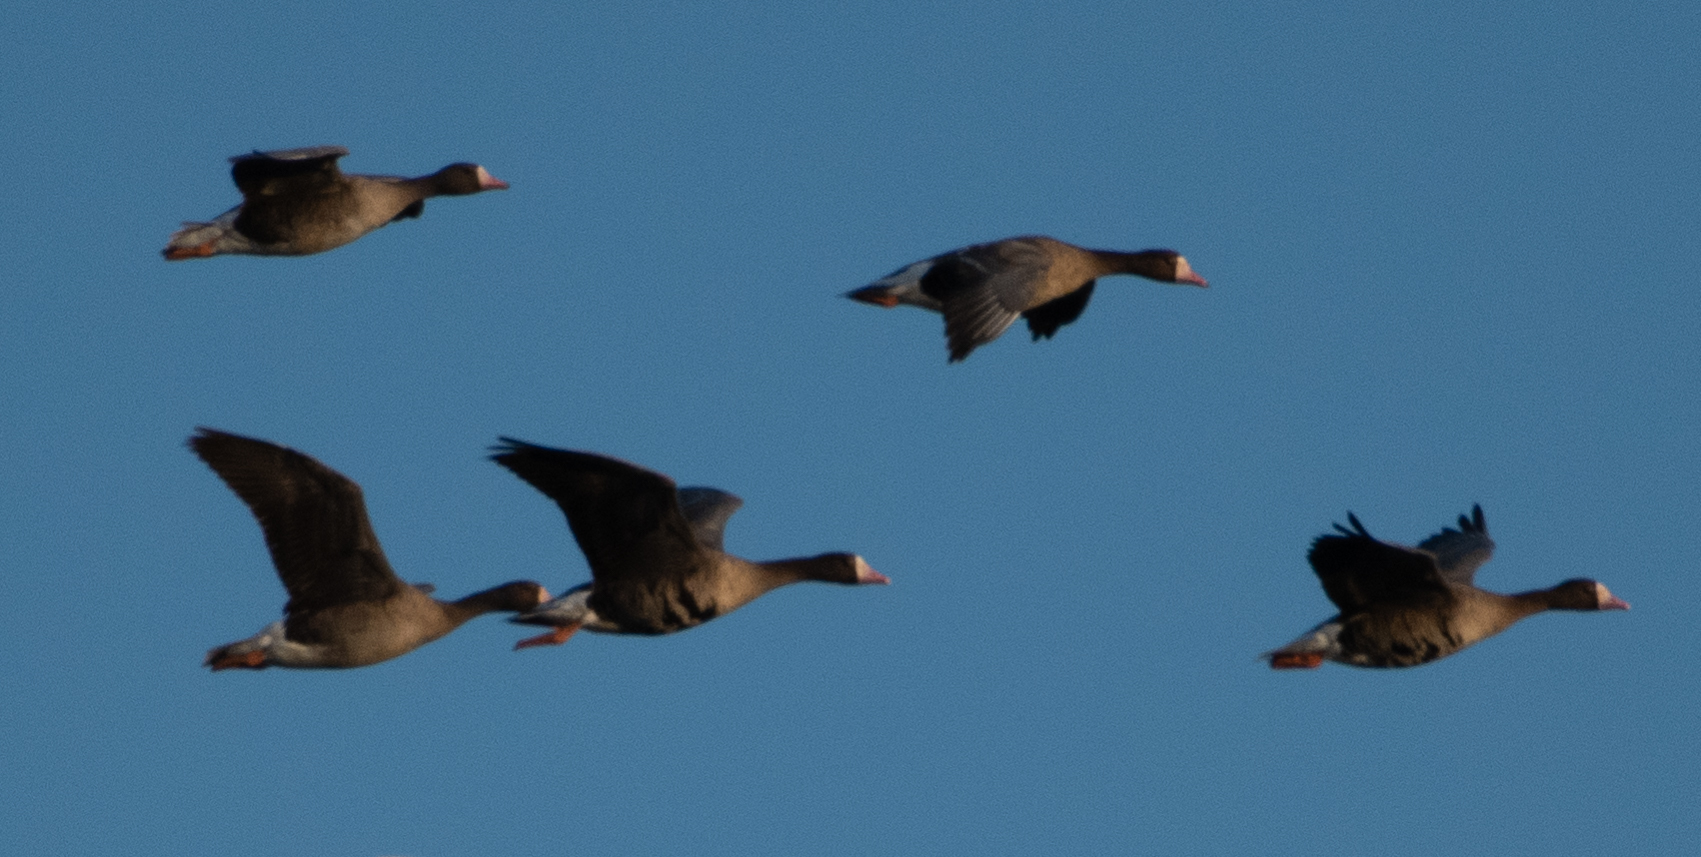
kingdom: Animalia
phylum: Chordata
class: Aves
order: Anseriformes
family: Anatidae
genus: Anser
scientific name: Anser albifrons
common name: Greater white-fronted goose
